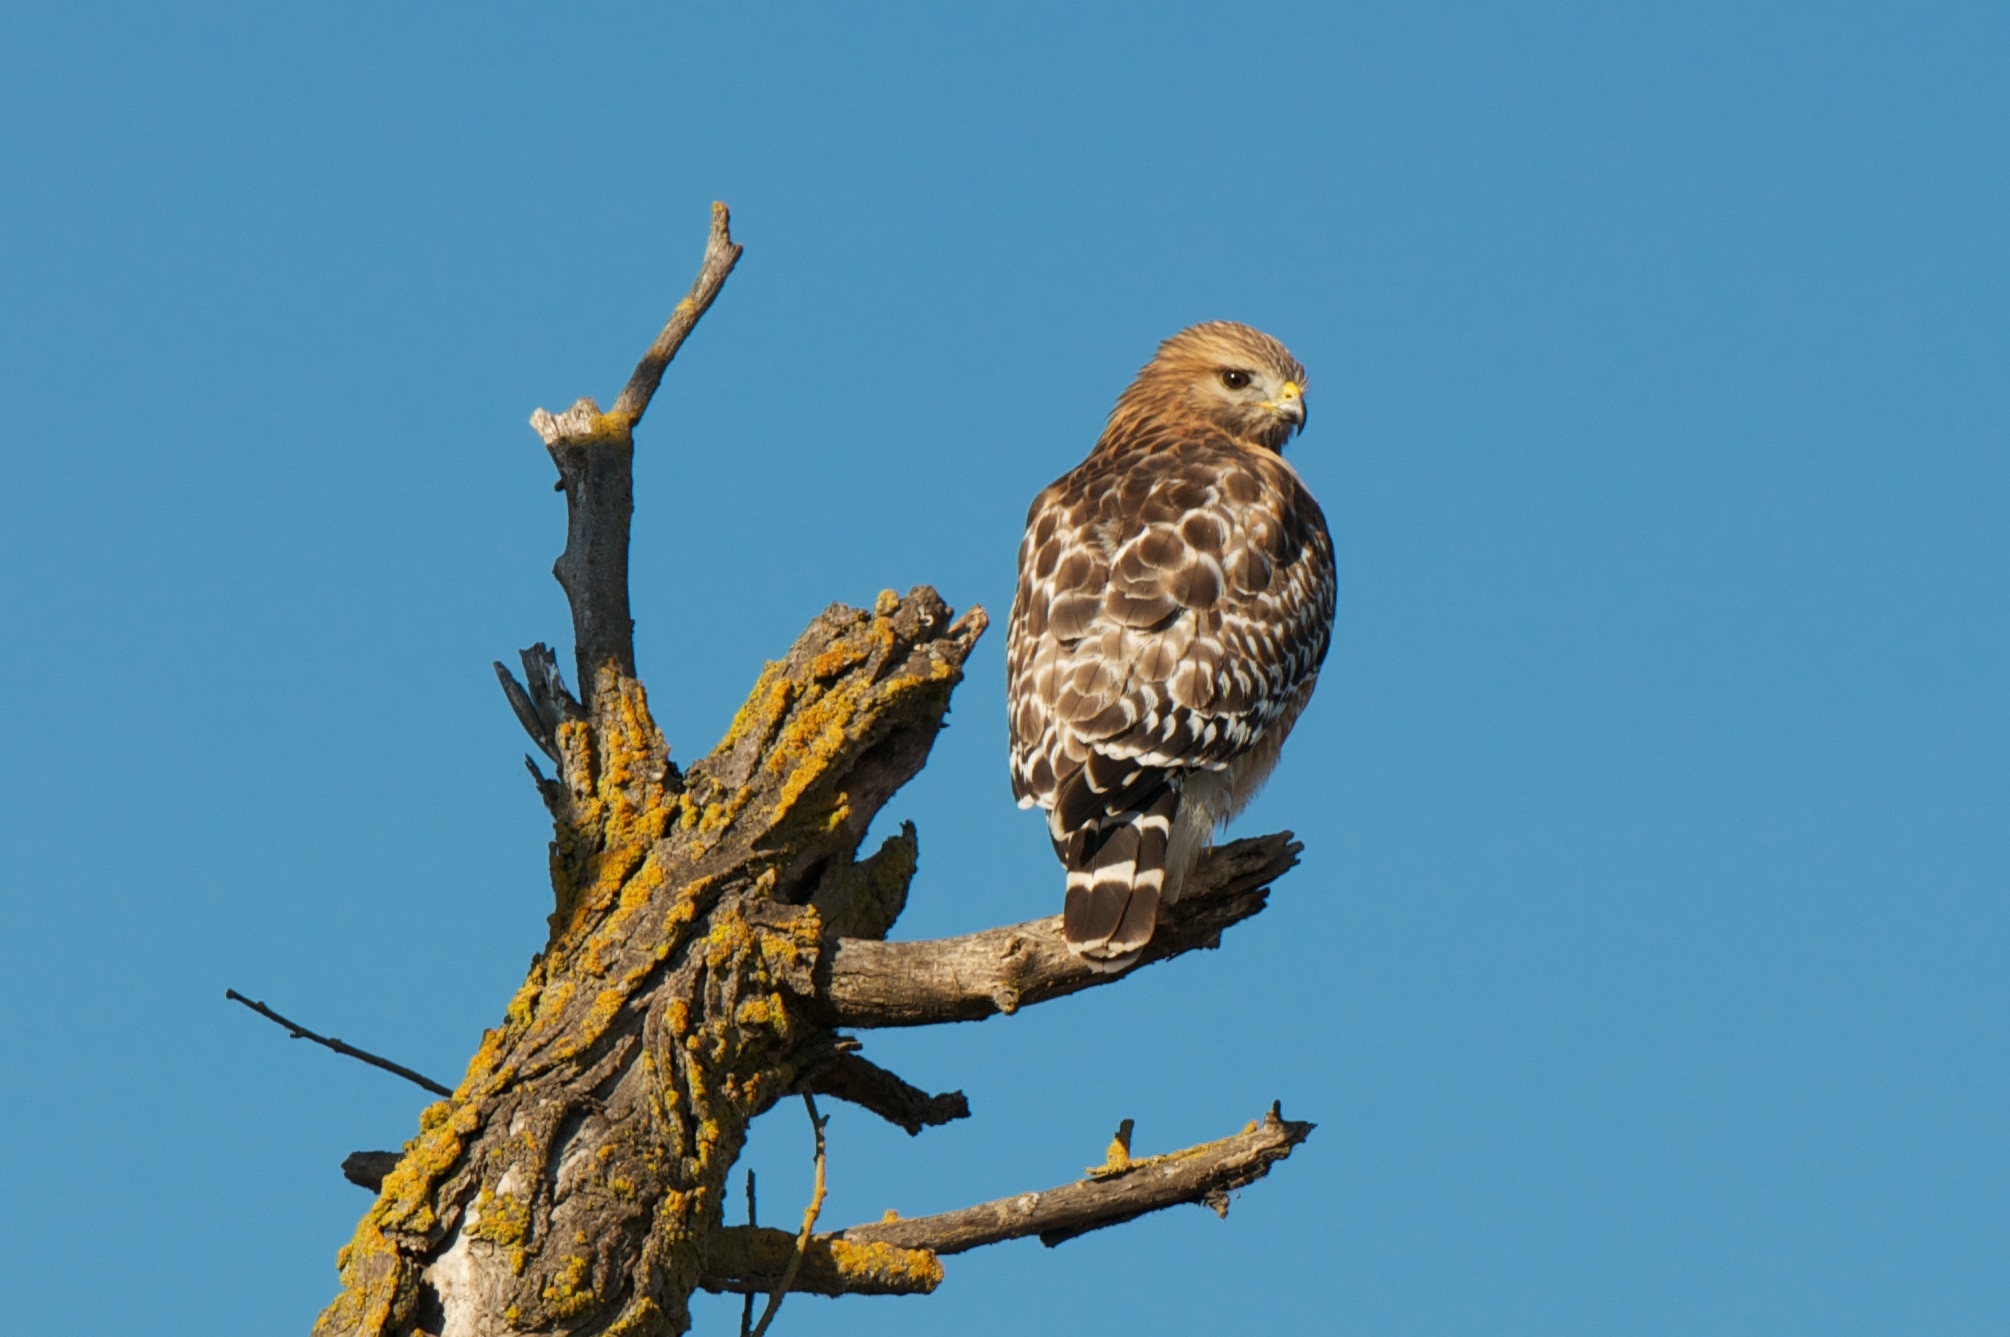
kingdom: Animalia
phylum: Chordata
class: Aves
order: Accipitriformes
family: Accipitridae
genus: Buteo
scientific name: Buteo lineatus
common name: Red-shouldered hawk
